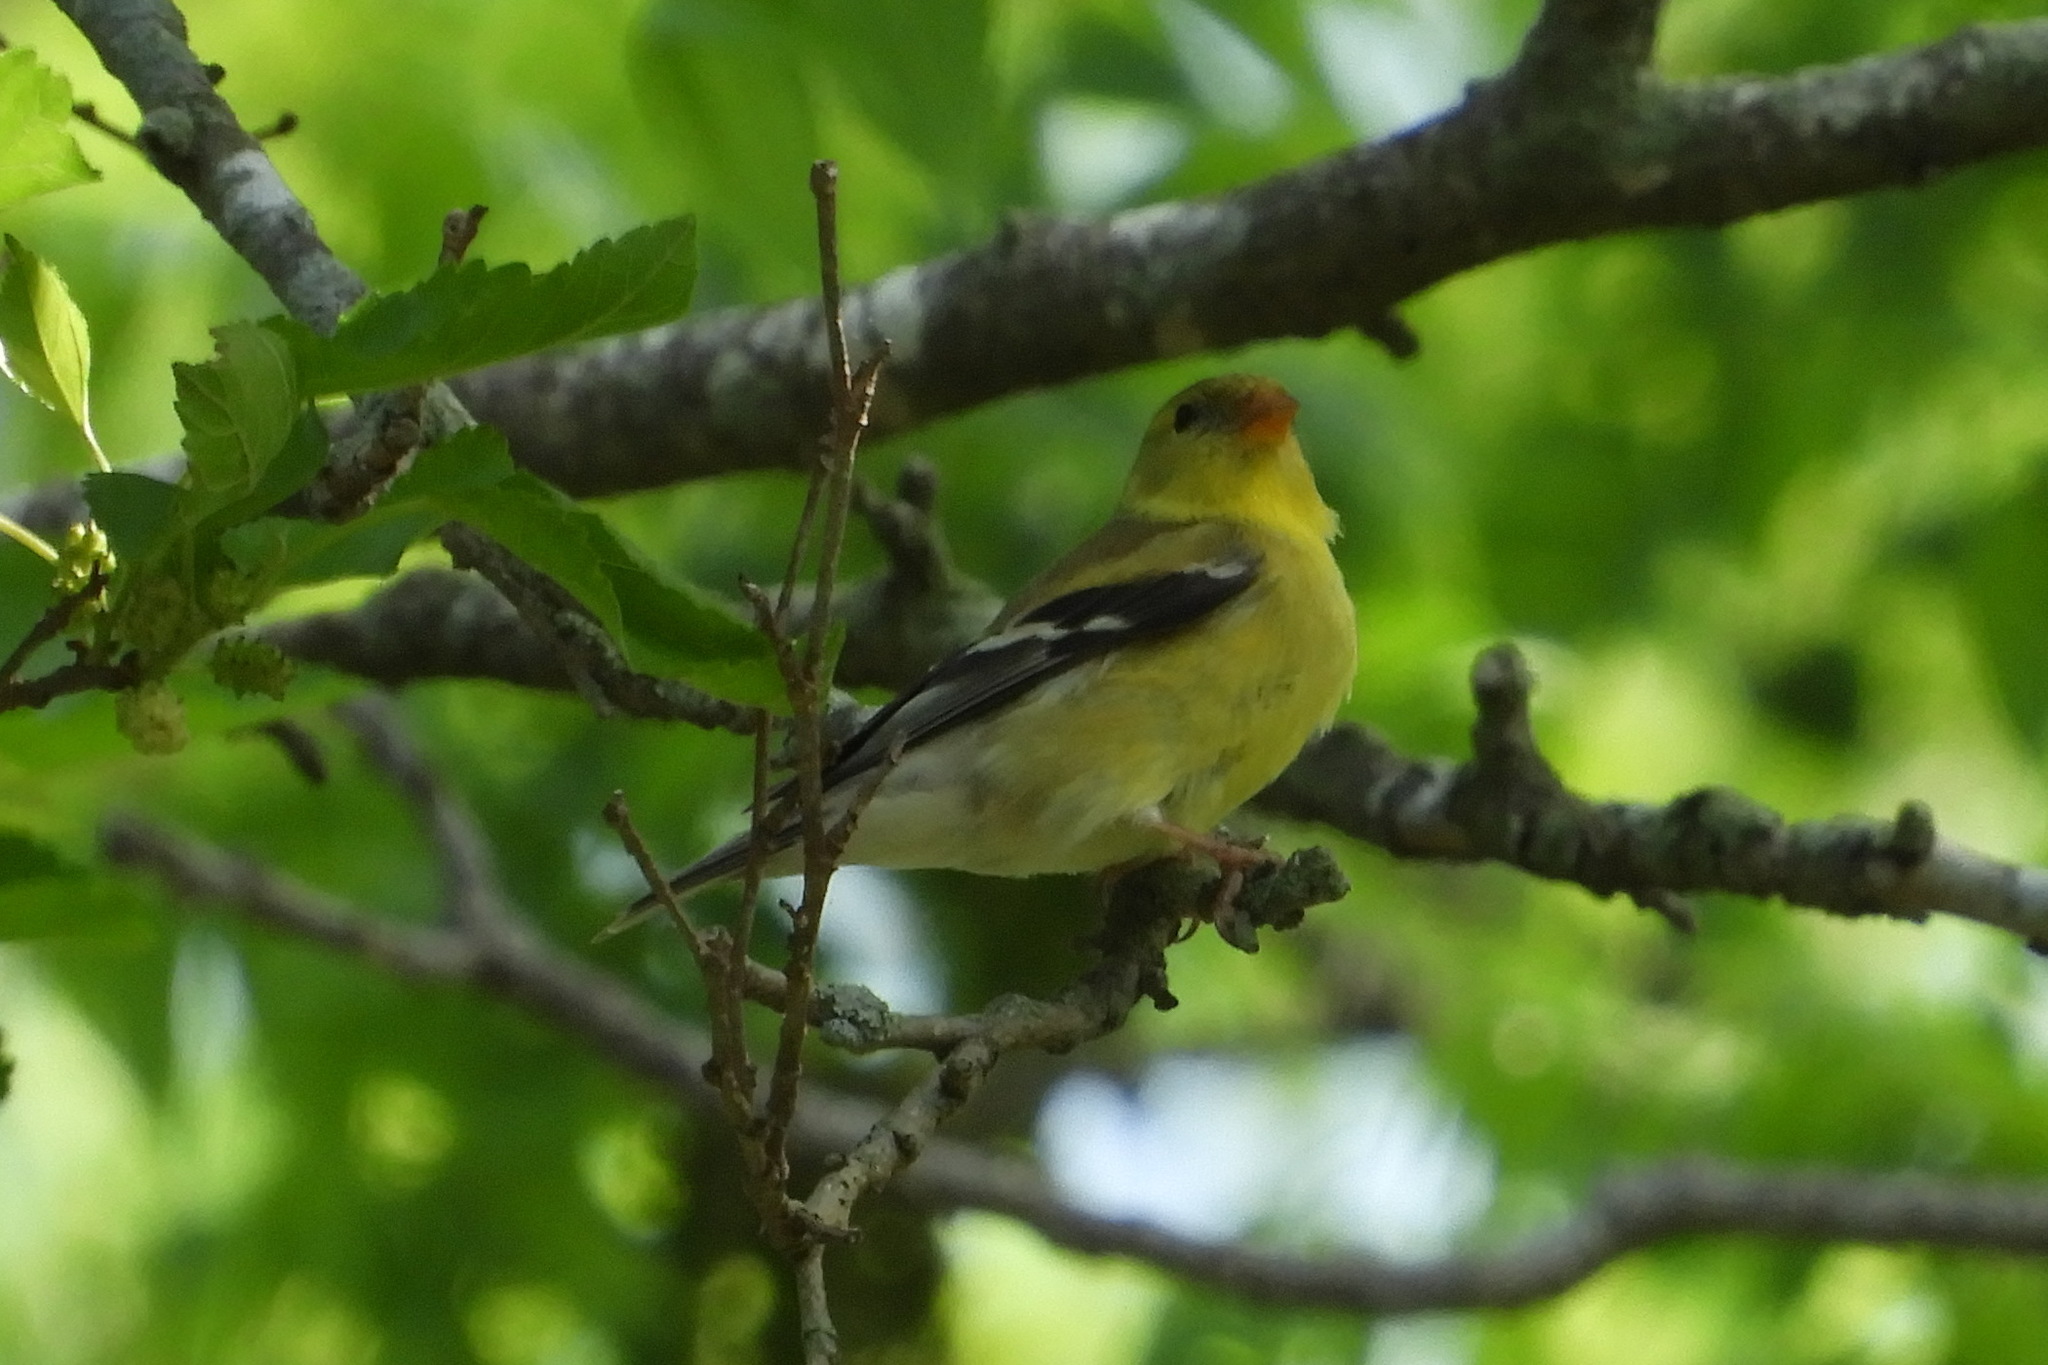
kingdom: Animalia
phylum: Chordata
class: Aves
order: Passeriformes
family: Fringillidae
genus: Spinus
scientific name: Spinus tristis
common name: American goldfinch
